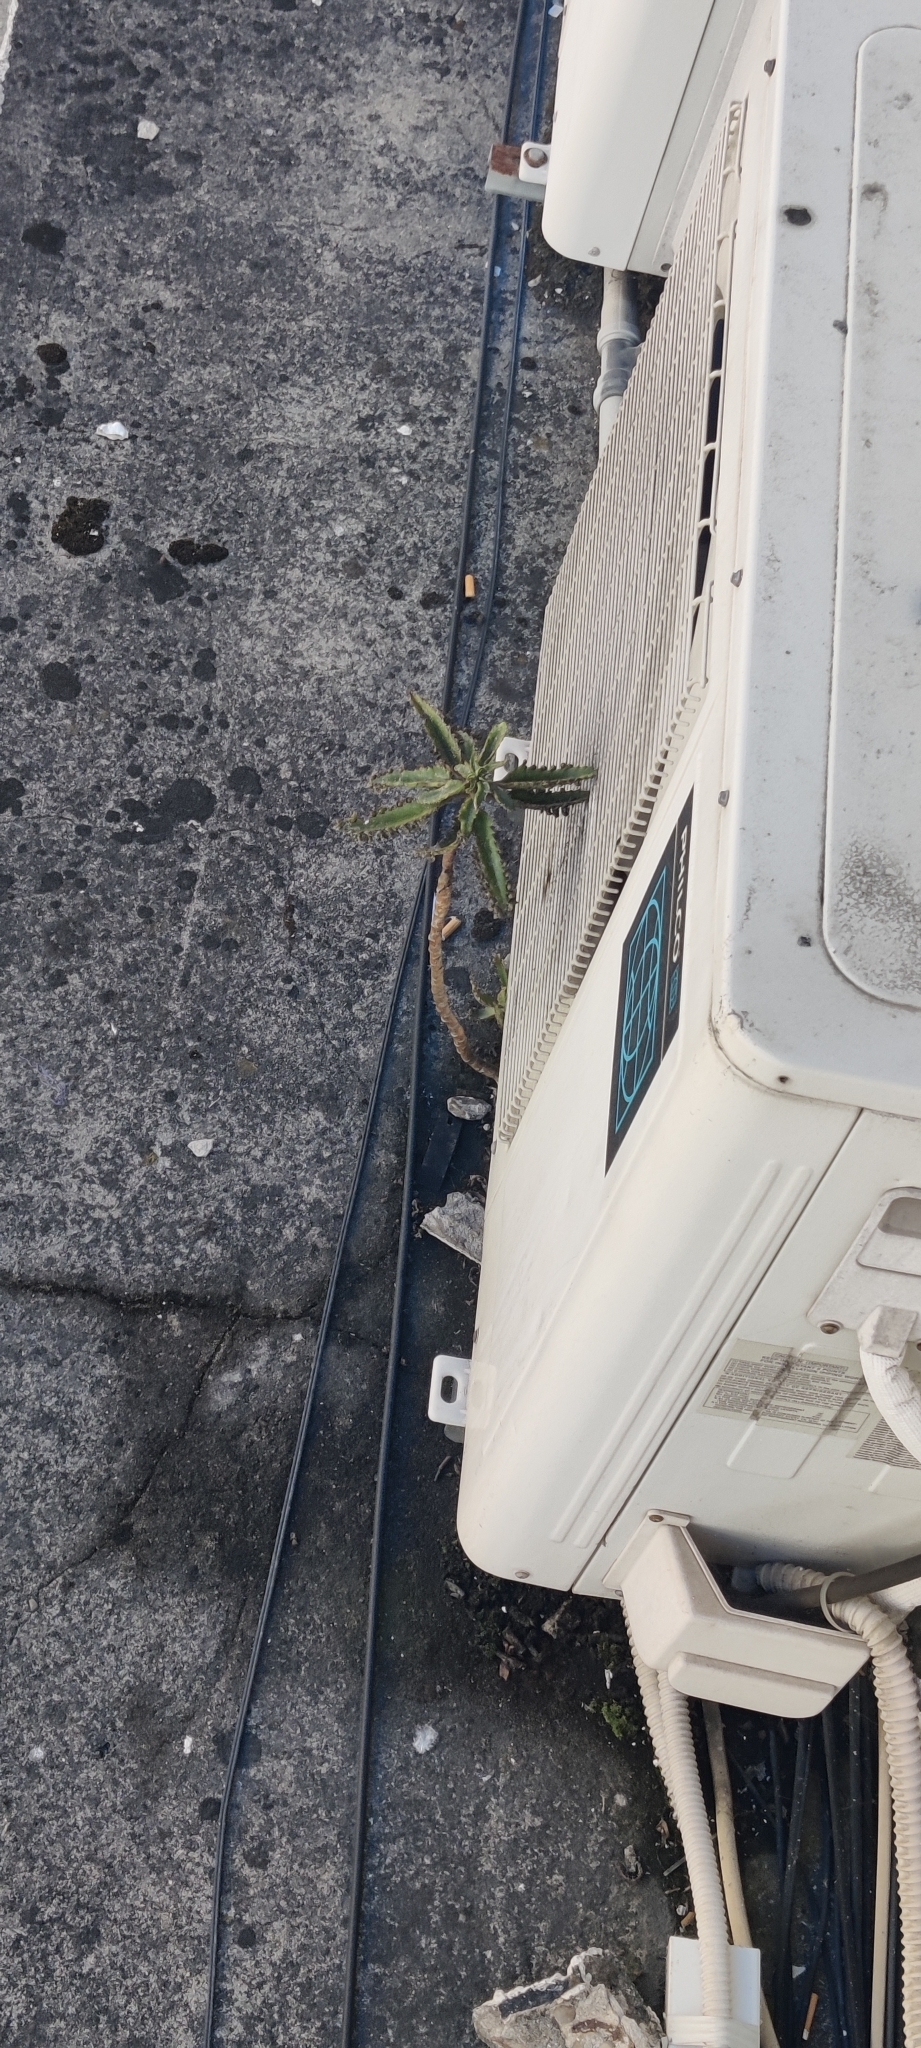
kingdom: Plantae
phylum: Tracheophyta
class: Magnoliopsida
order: Saxifragales
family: Crassulaceae
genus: Kalanchoe
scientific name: Kalanchoe houghtonii
